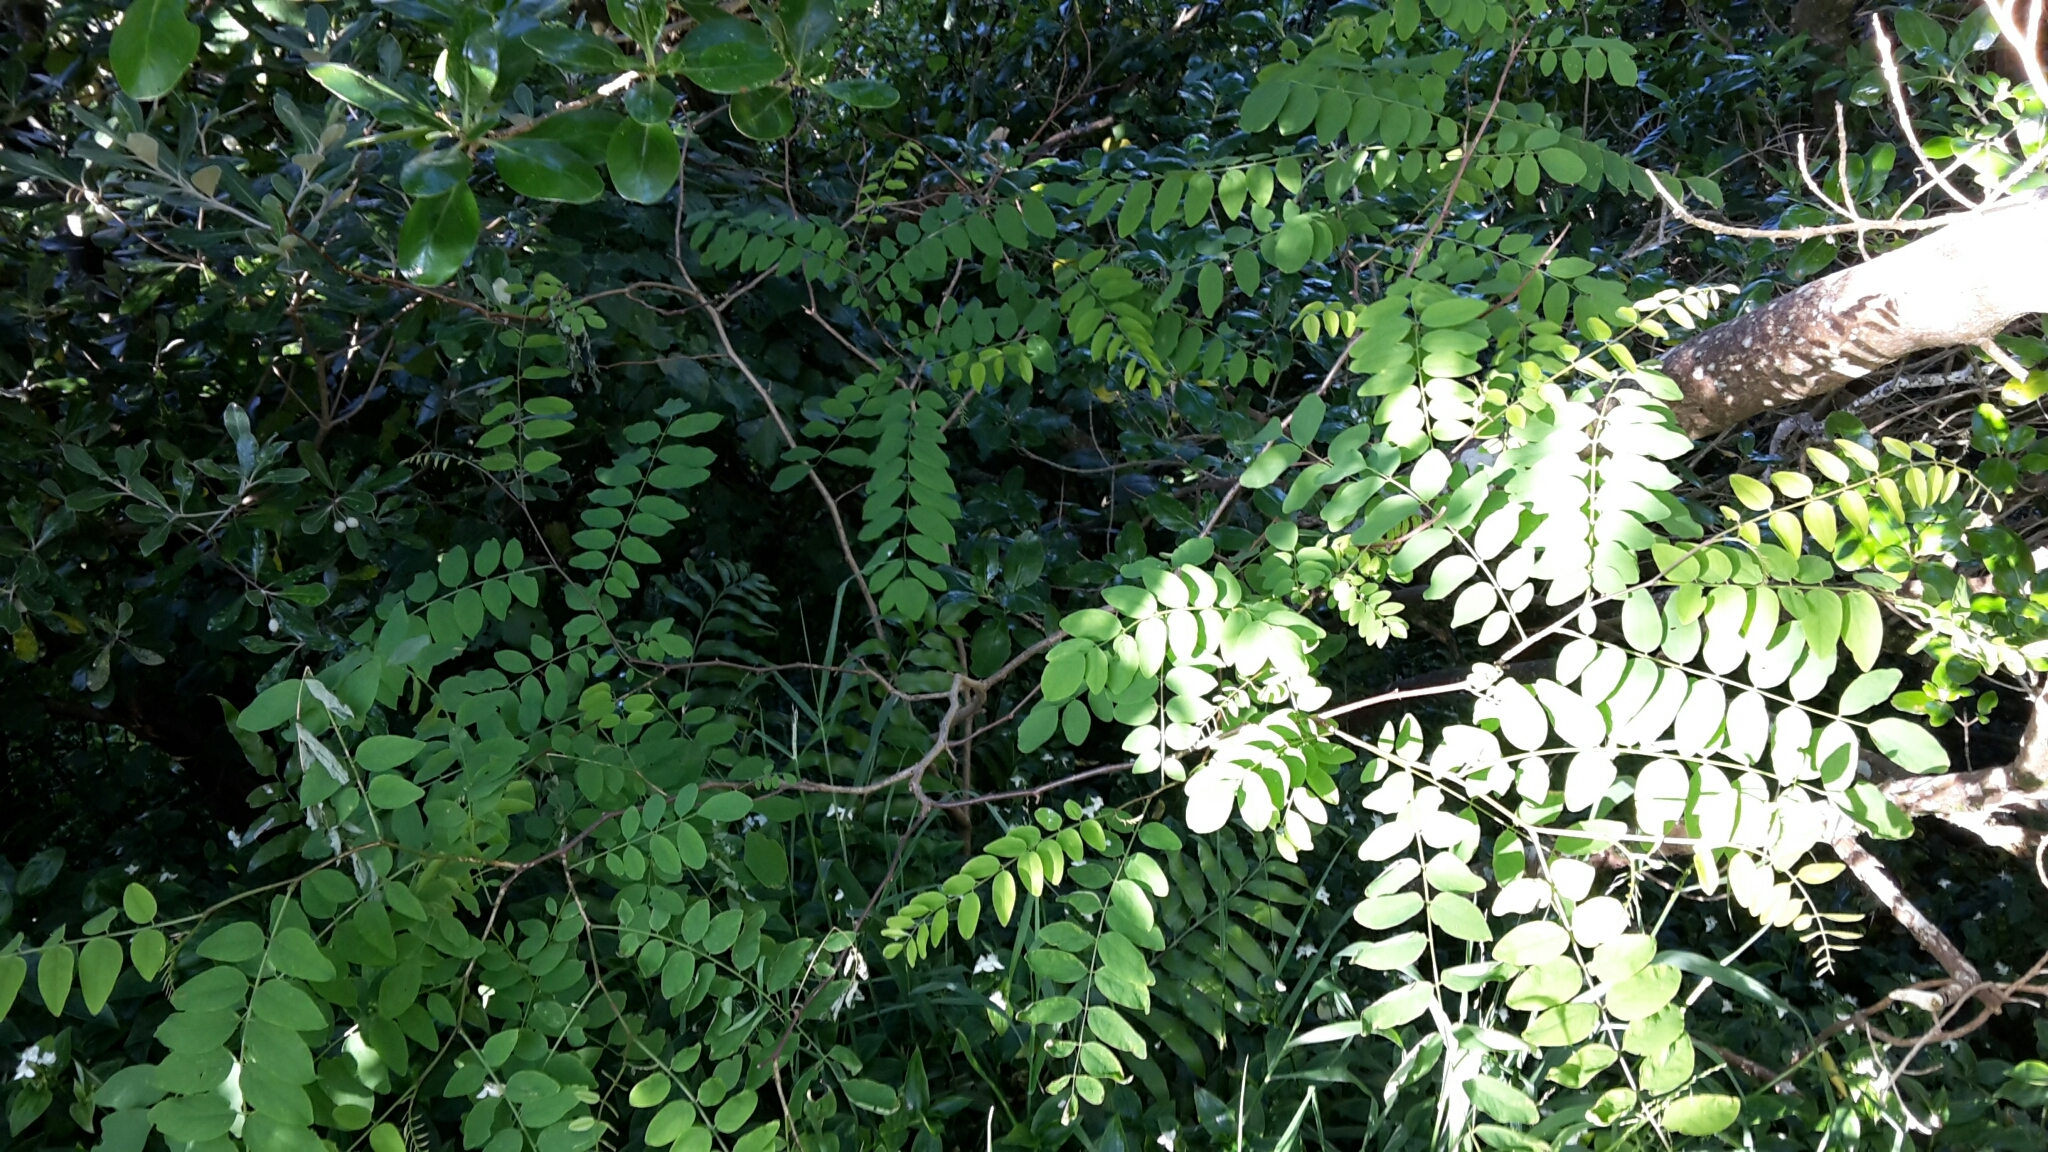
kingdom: Plantae
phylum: Tracheophyta
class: Magnoliopsida
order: Fabales
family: Fabaceae
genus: Robinia
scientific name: Robinia pseudoacacia
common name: Black locust
